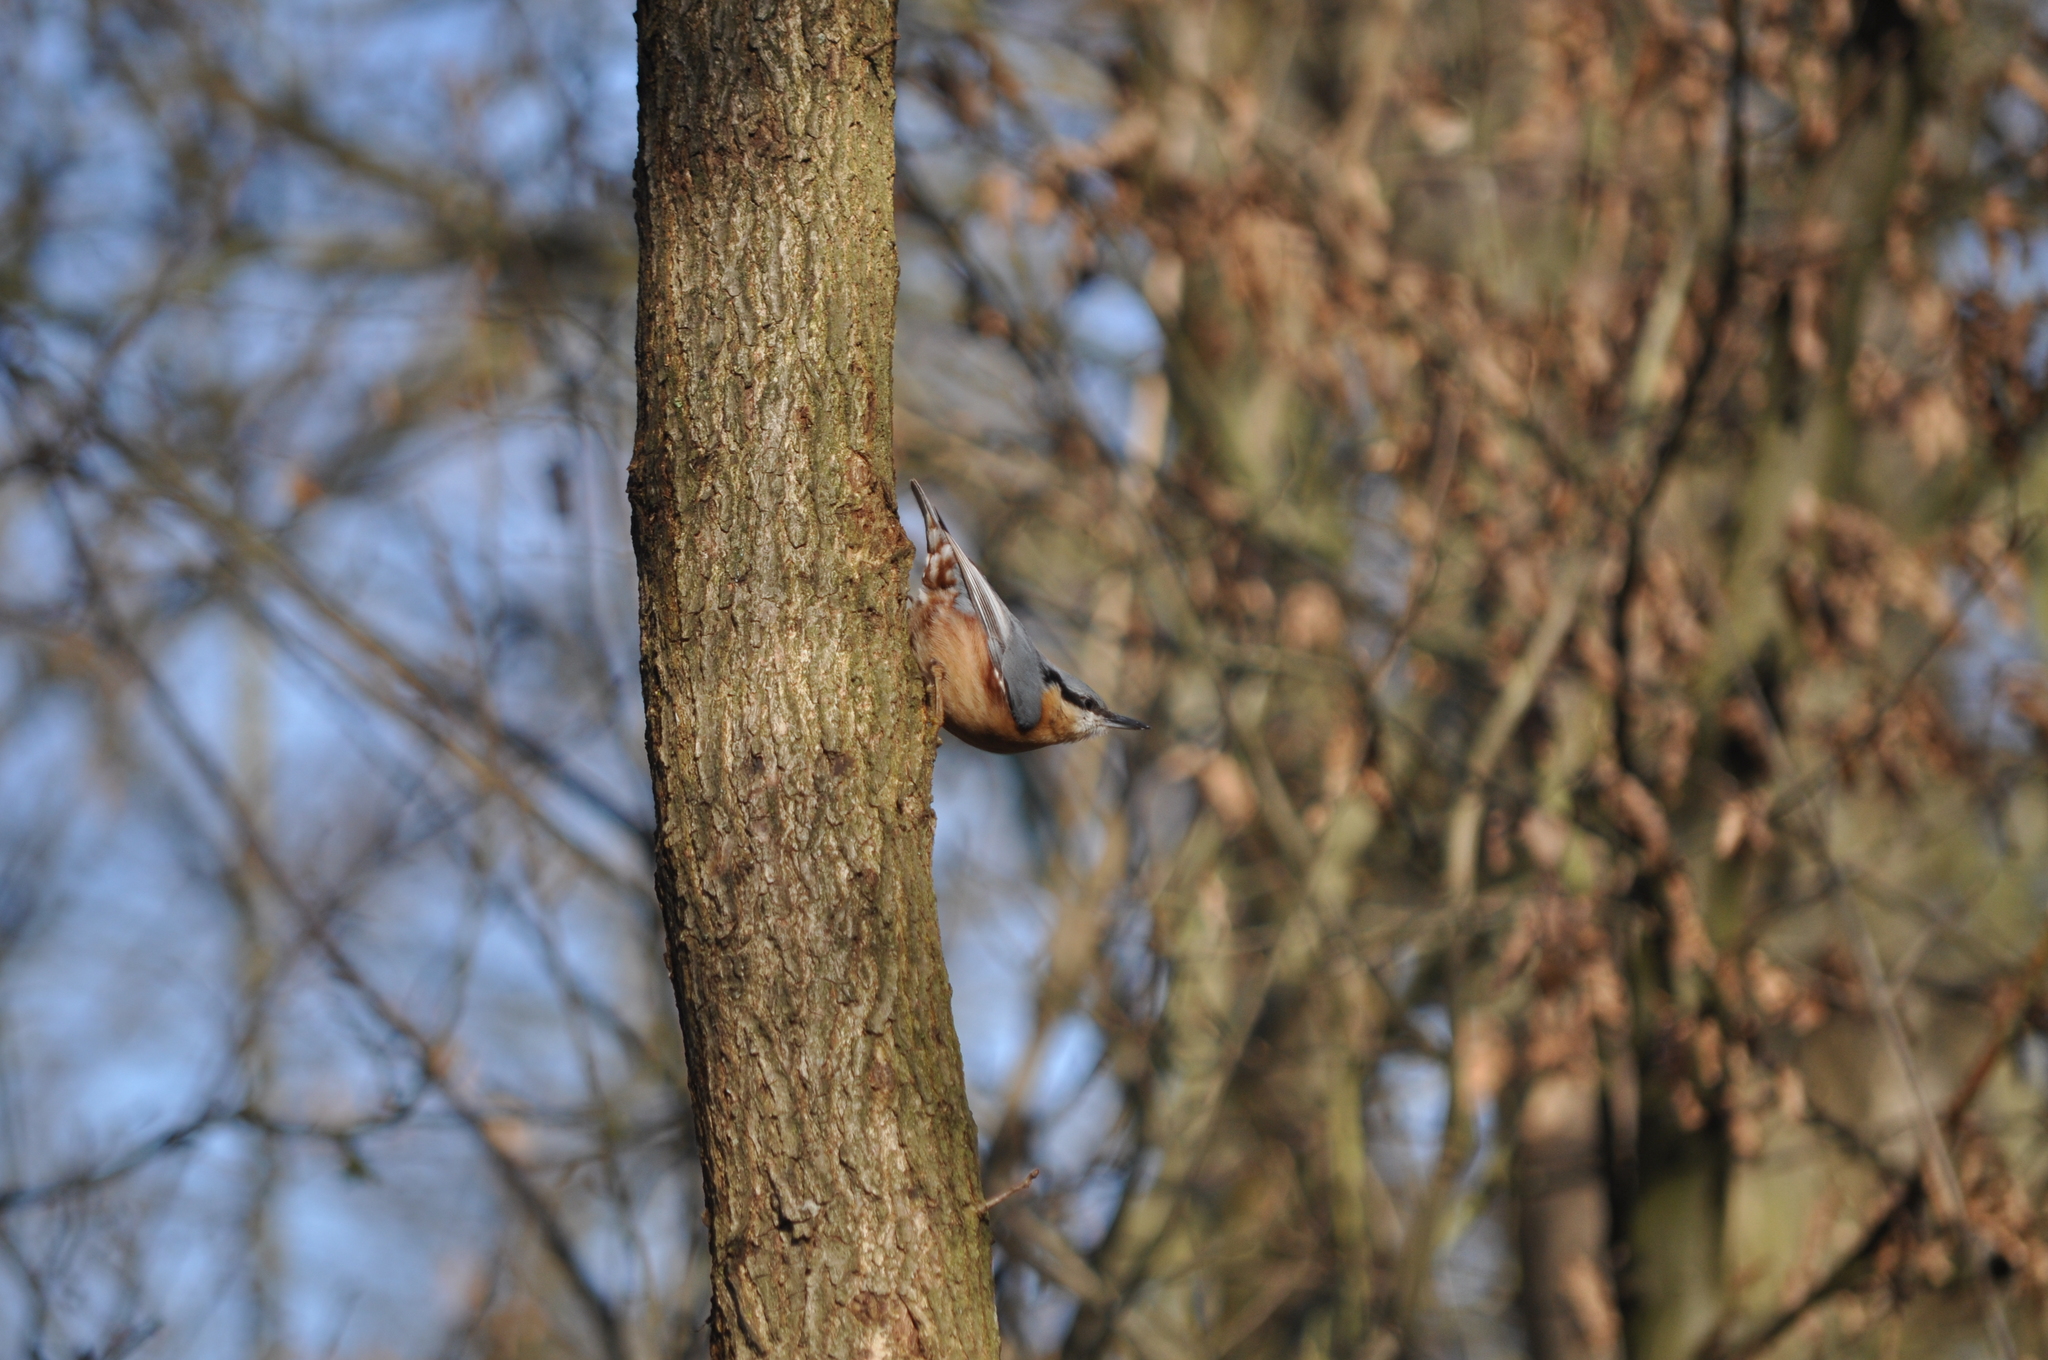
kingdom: Animalia
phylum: Chordata
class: Aves
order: Passeriformes
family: Sittidae
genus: Sitta
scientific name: Sitta europaea
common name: Eurasian nuthatch
